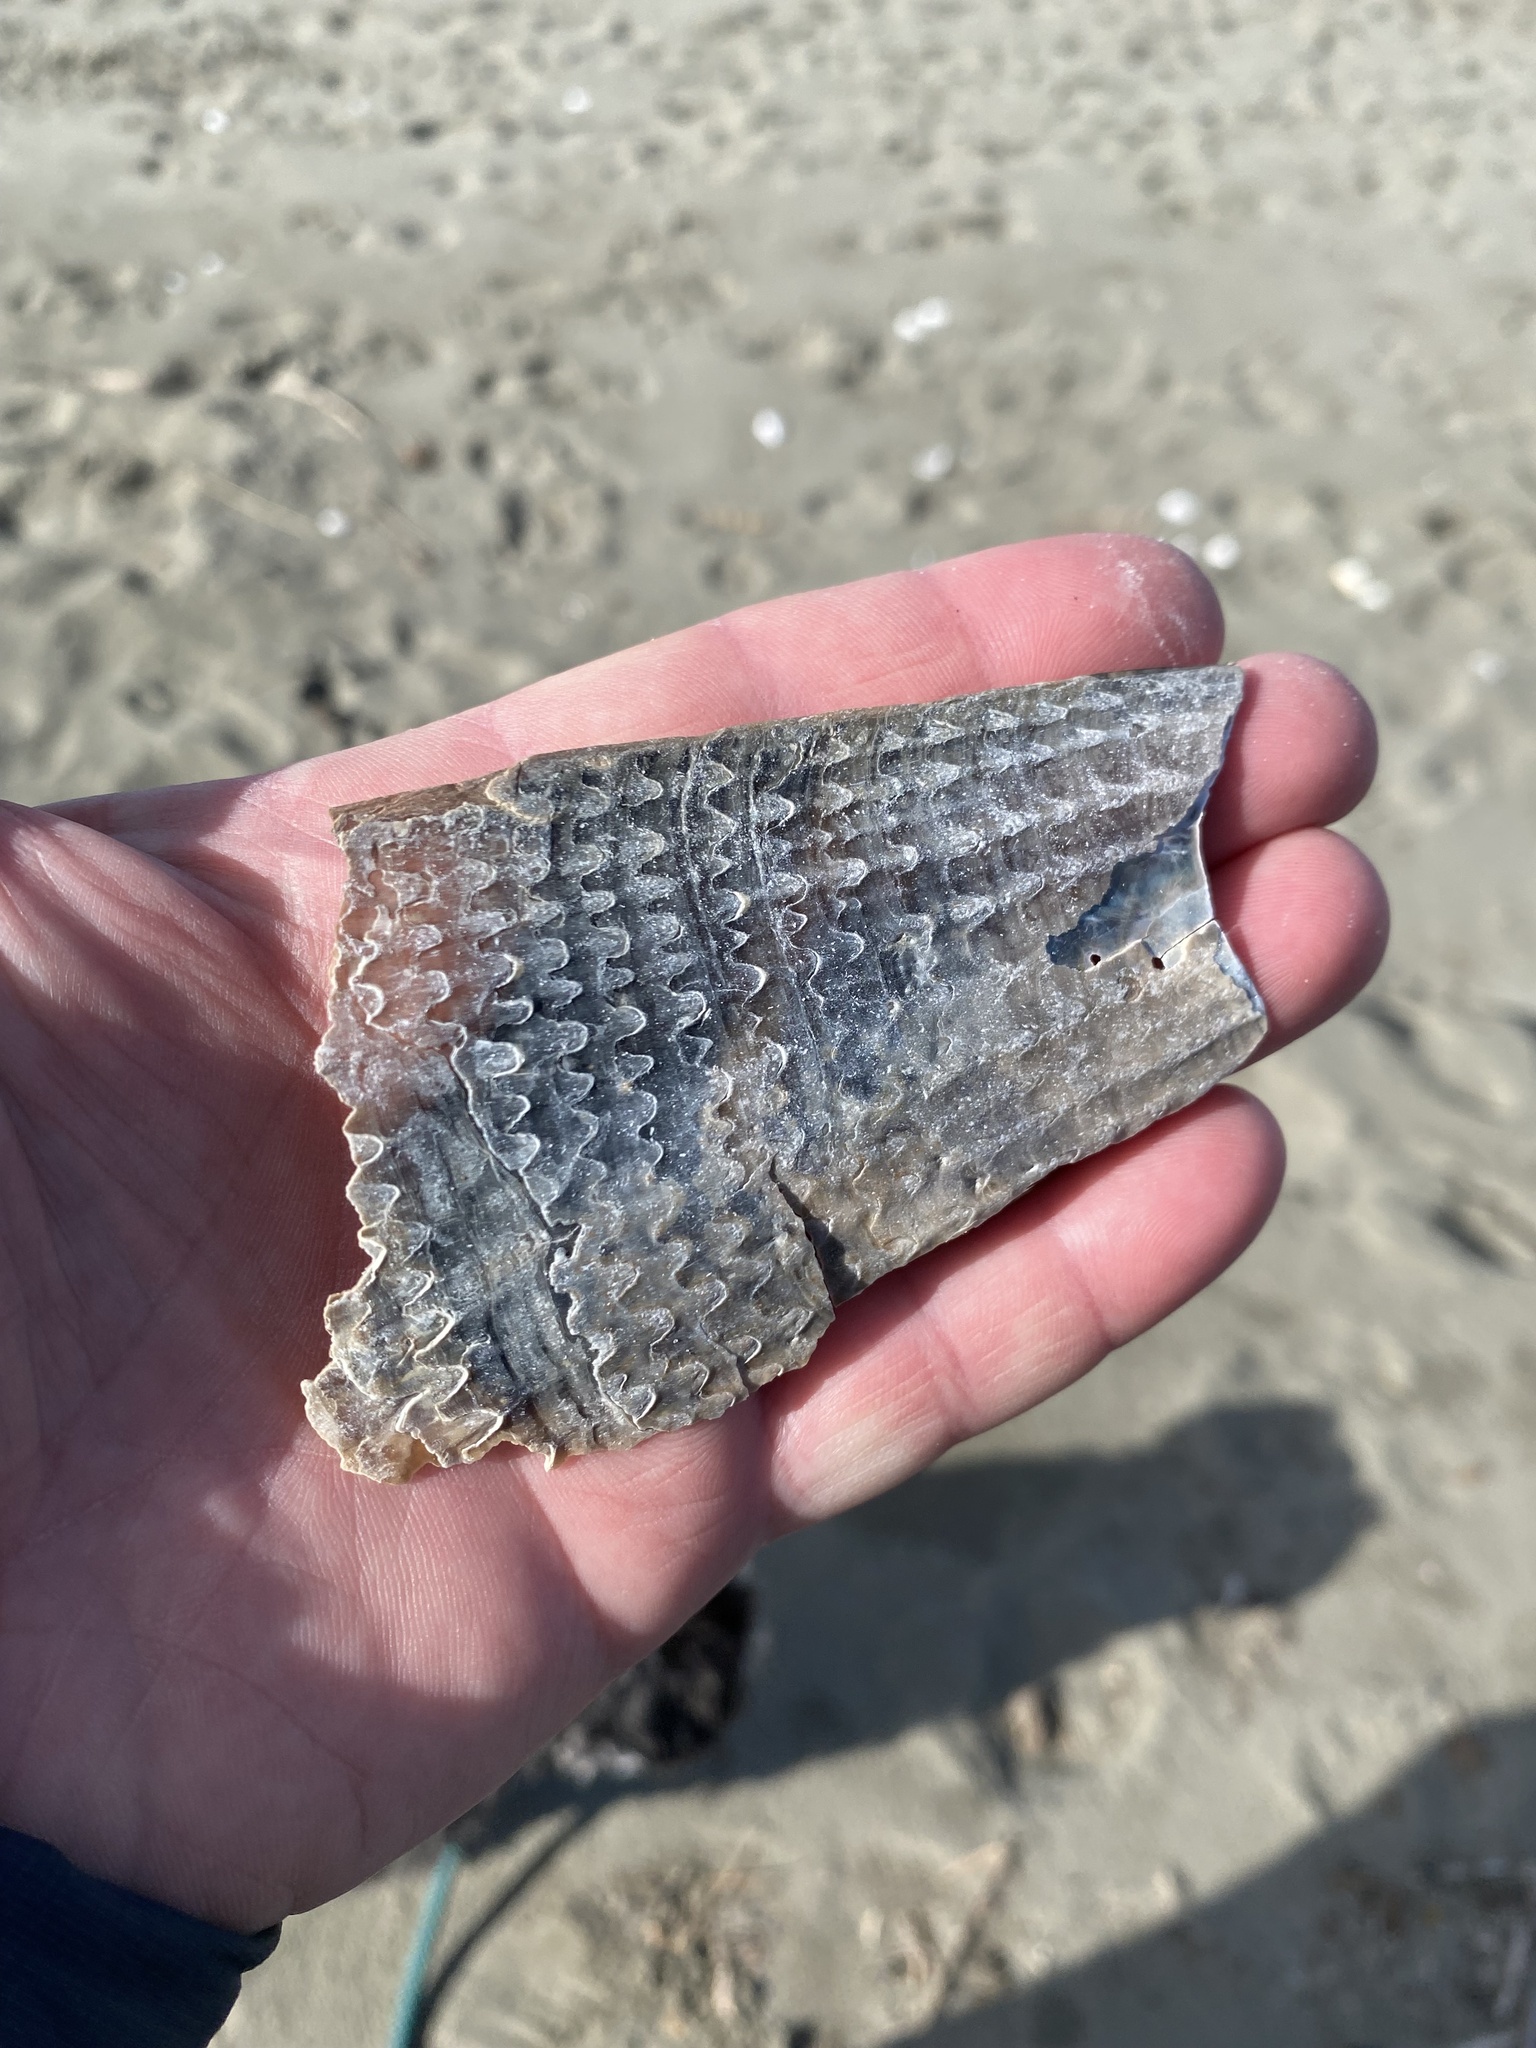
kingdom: Animalia
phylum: Mollusca
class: Bivalvia
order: Ostreida
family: Pinnidae
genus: Atrina
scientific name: Atrina zelandica
